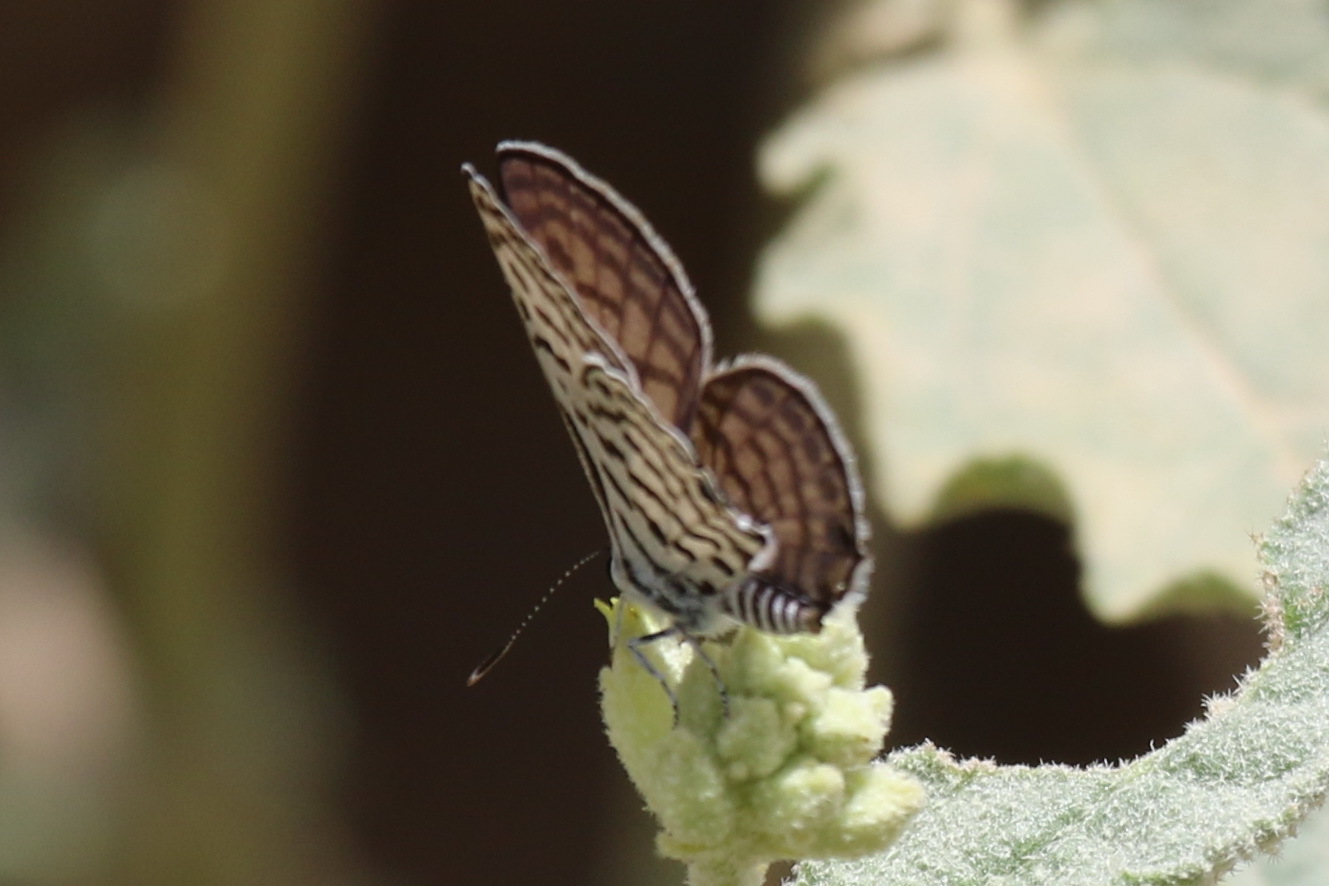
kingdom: Animalia
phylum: Arthropoda
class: Insecta
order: Lepidoptera
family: Lycaenidae
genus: Tarucus
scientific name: Tarucus rosacea
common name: Mediterranean pierrot
